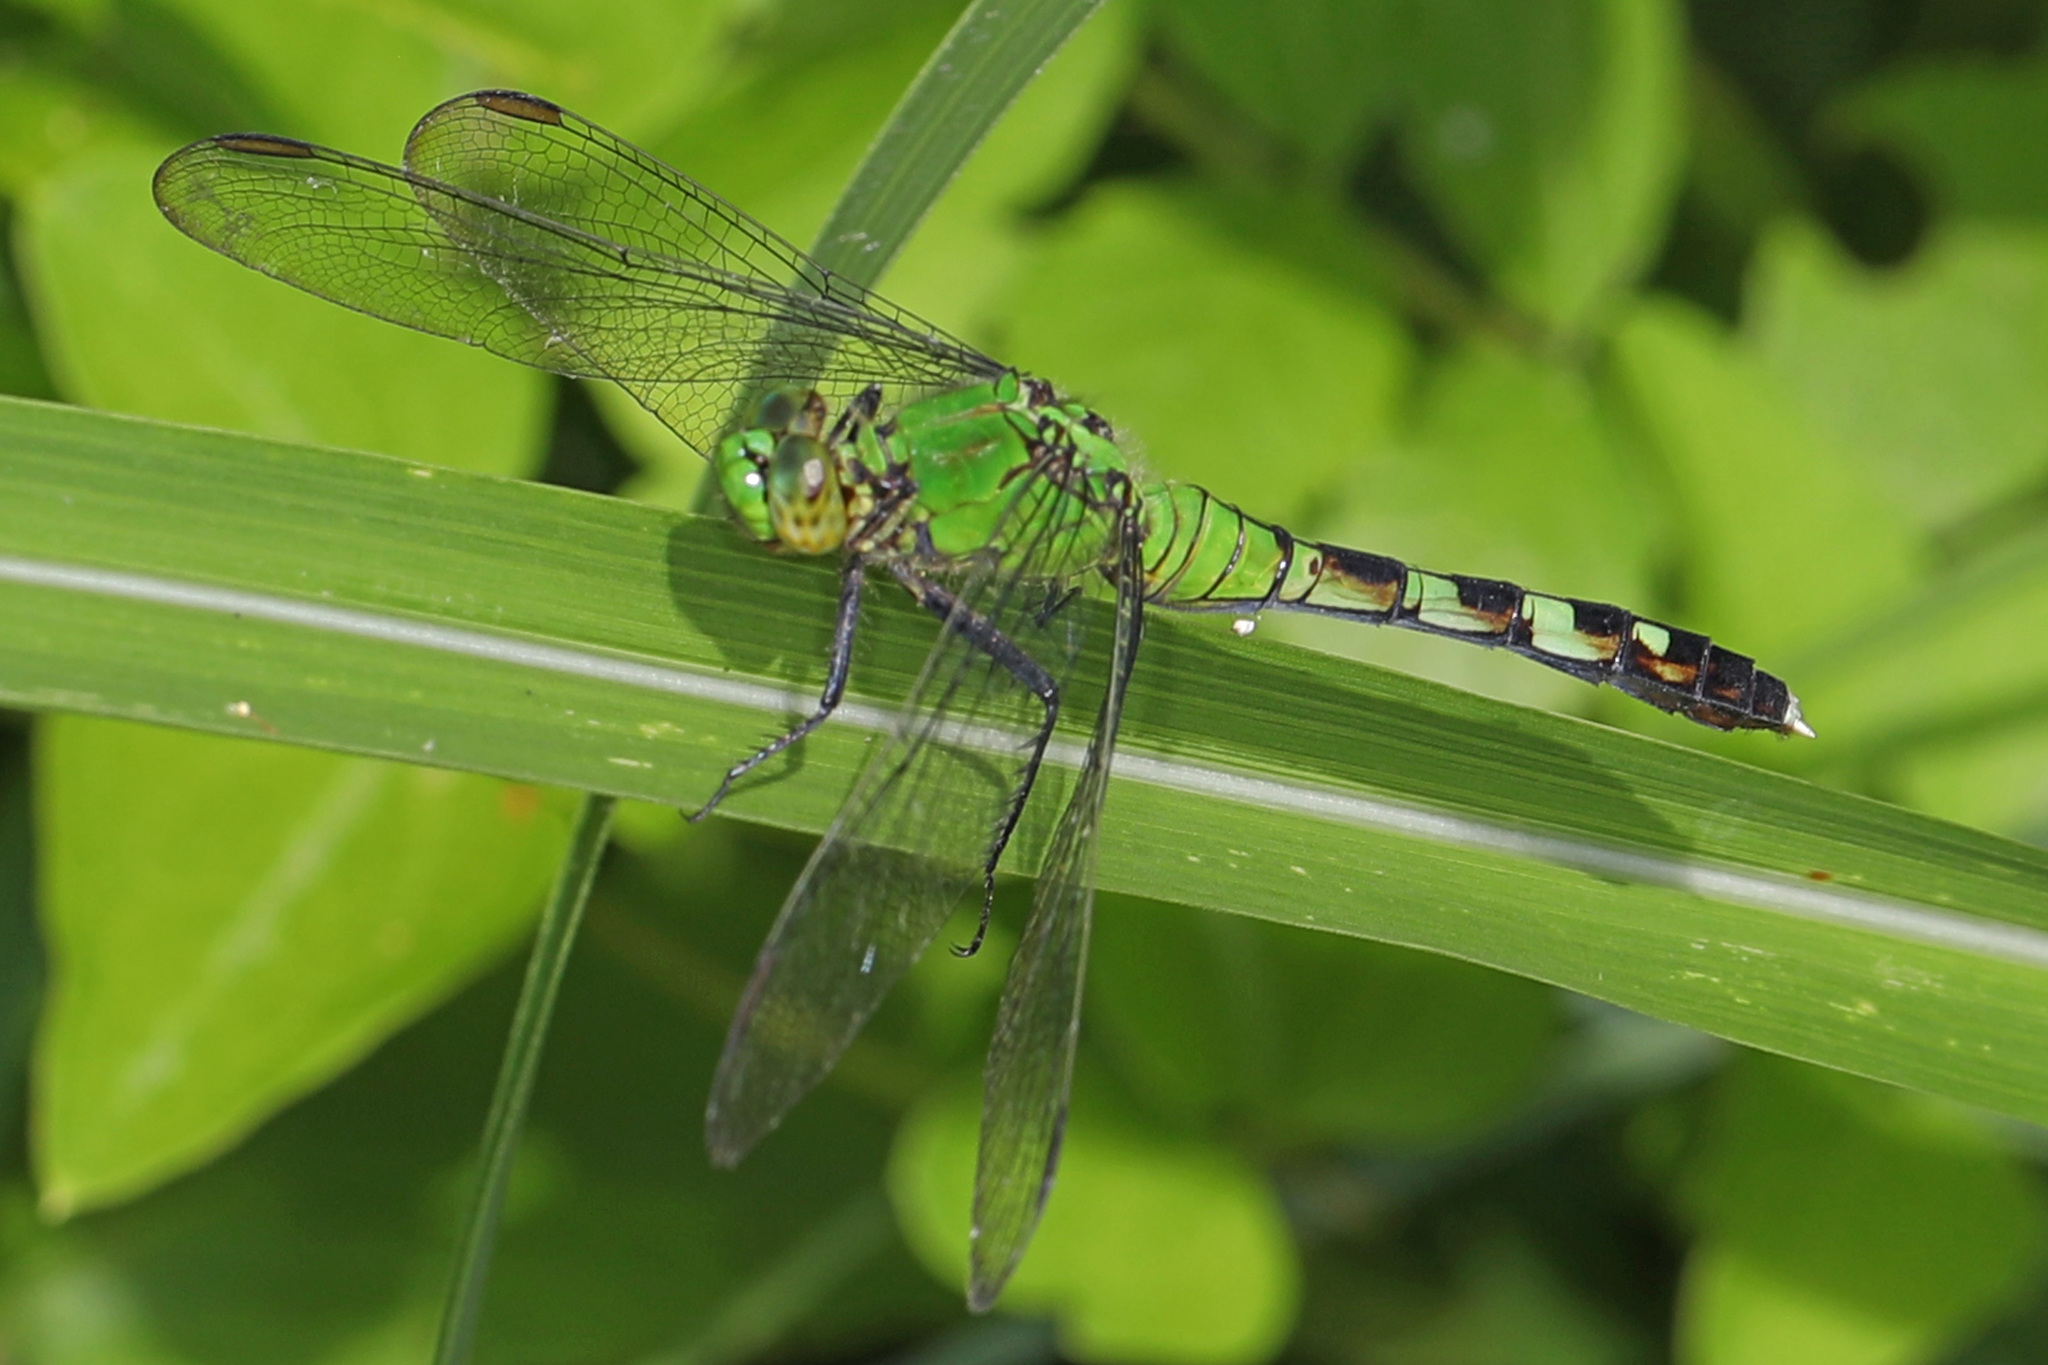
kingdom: Animalia
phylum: Arthropoda
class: Insecta
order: Odonata
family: Libellulidae
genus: Erythemis
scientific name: Erythemis simplicicollis
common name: Eastern pondhawk
